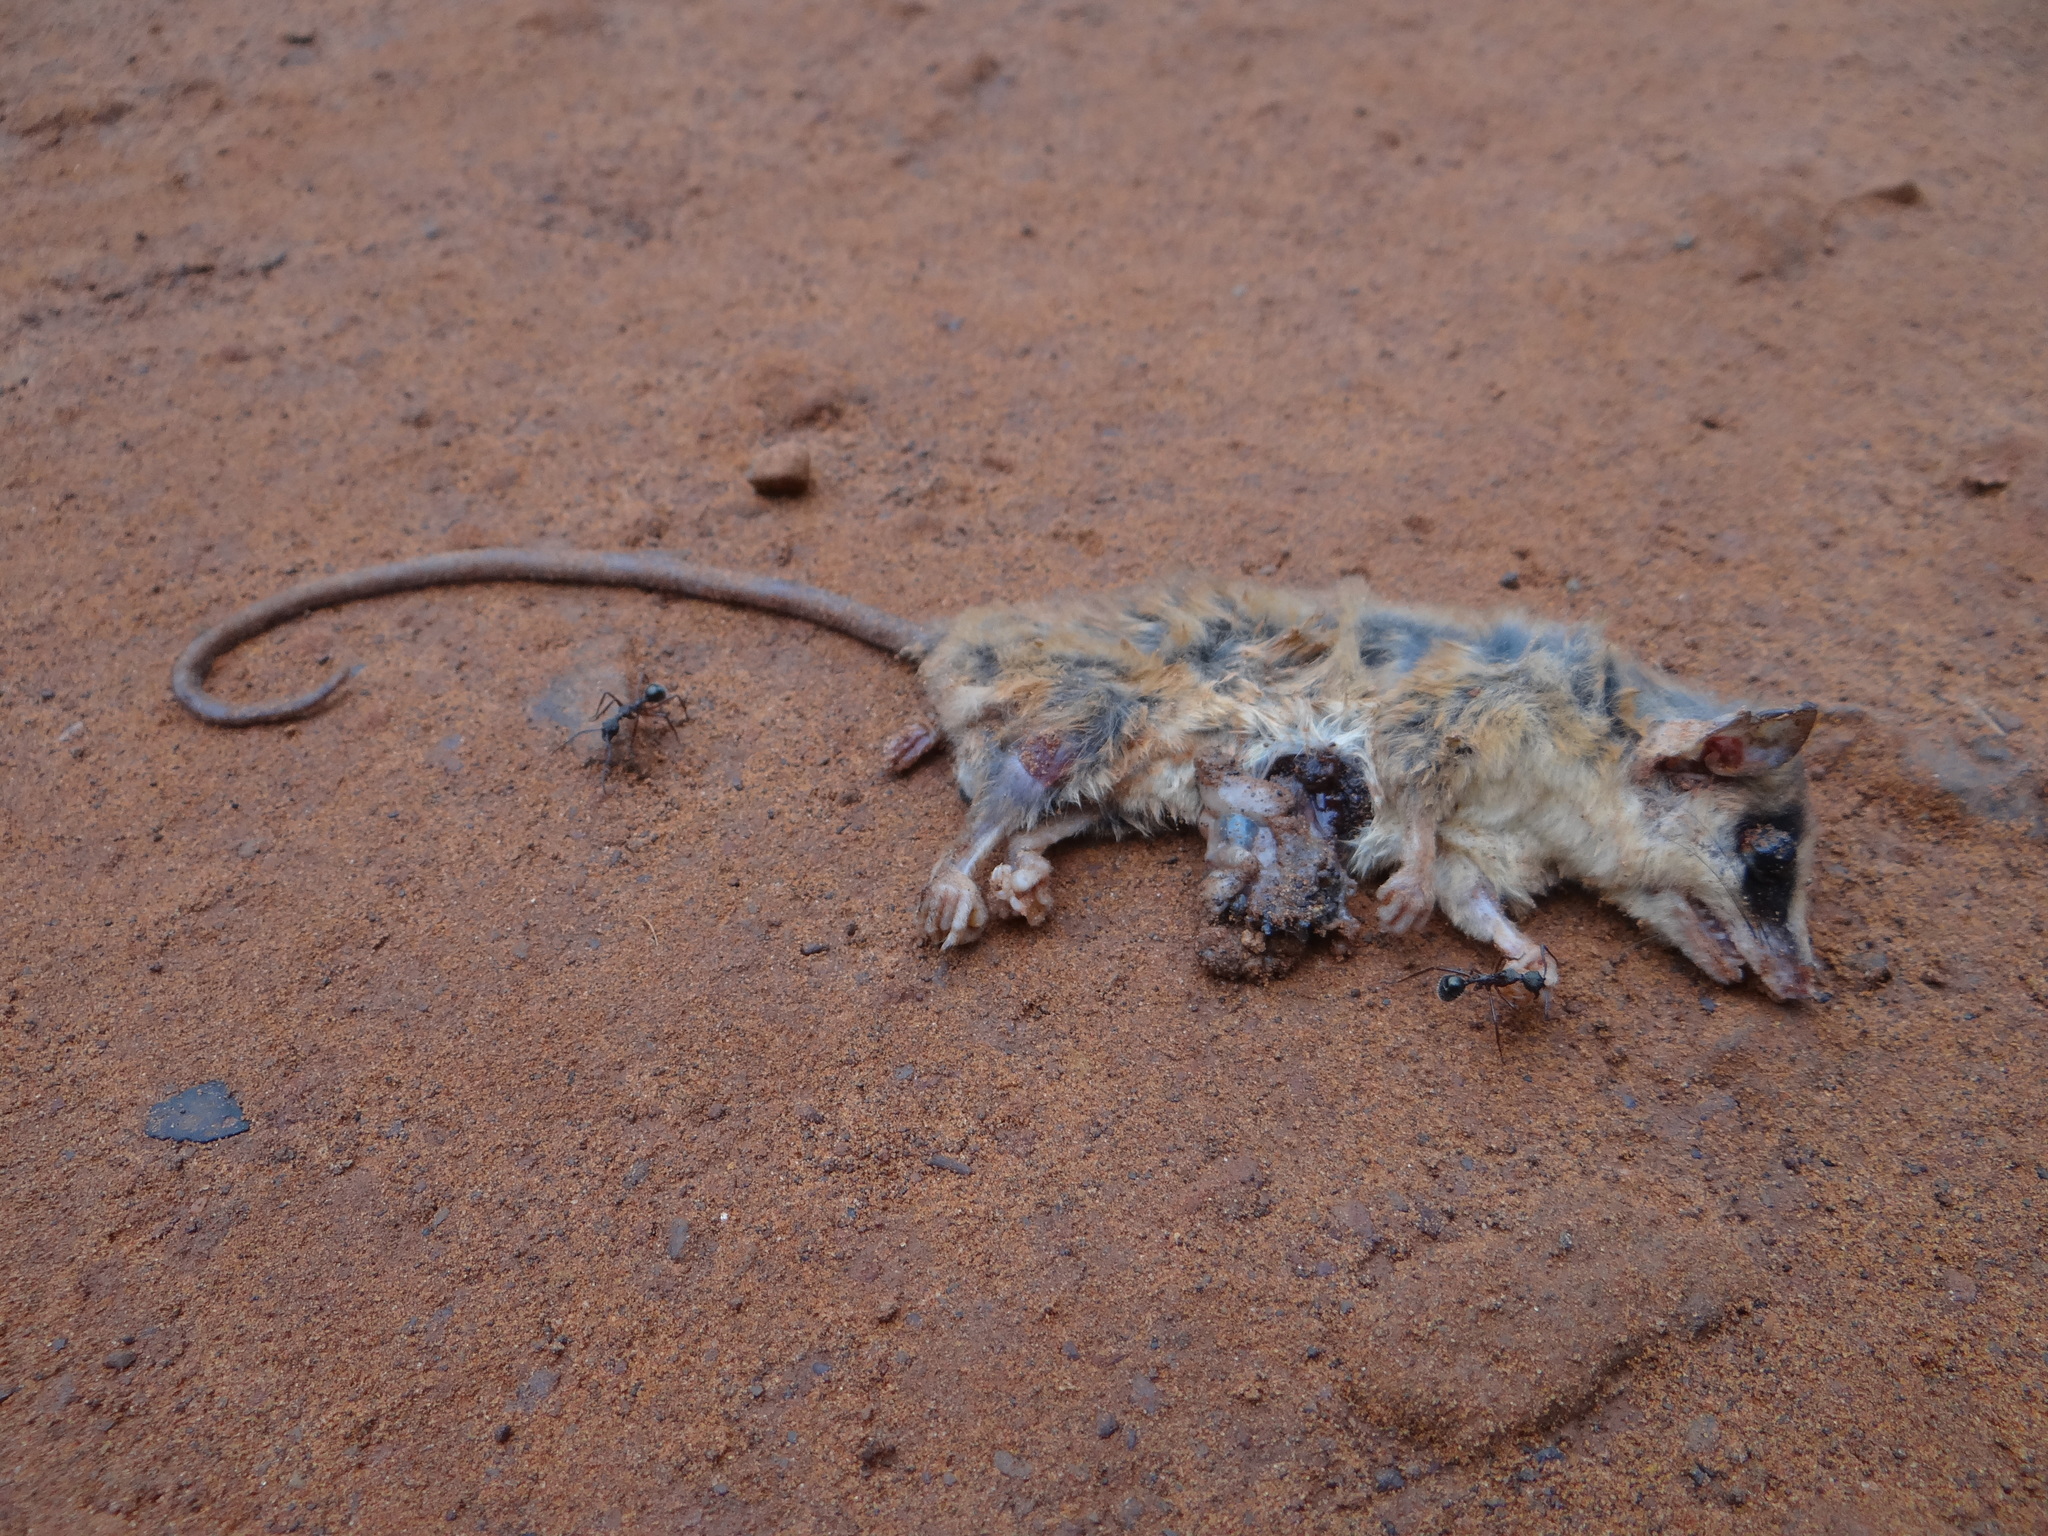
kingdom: Animalia
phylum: Chordata
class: Mammalia
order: Didelphimorphia
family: Didelphidae
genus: Gracilinanus
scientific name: Gracilinanus agilis
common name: Agile gracile opossum
